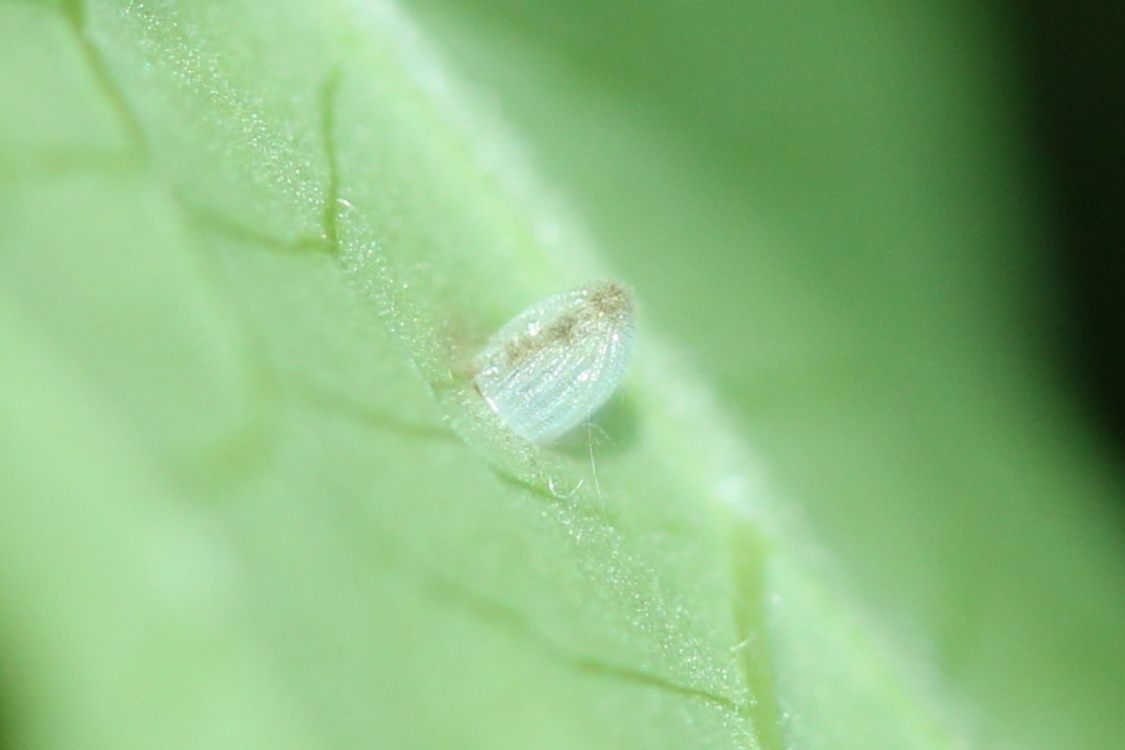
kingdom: Animalia
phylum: Arthropoda
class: Insecta
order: Lepidoptera
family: Nymphalidae
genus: Danaus
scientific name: Danaus plexippus
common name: Monarch
